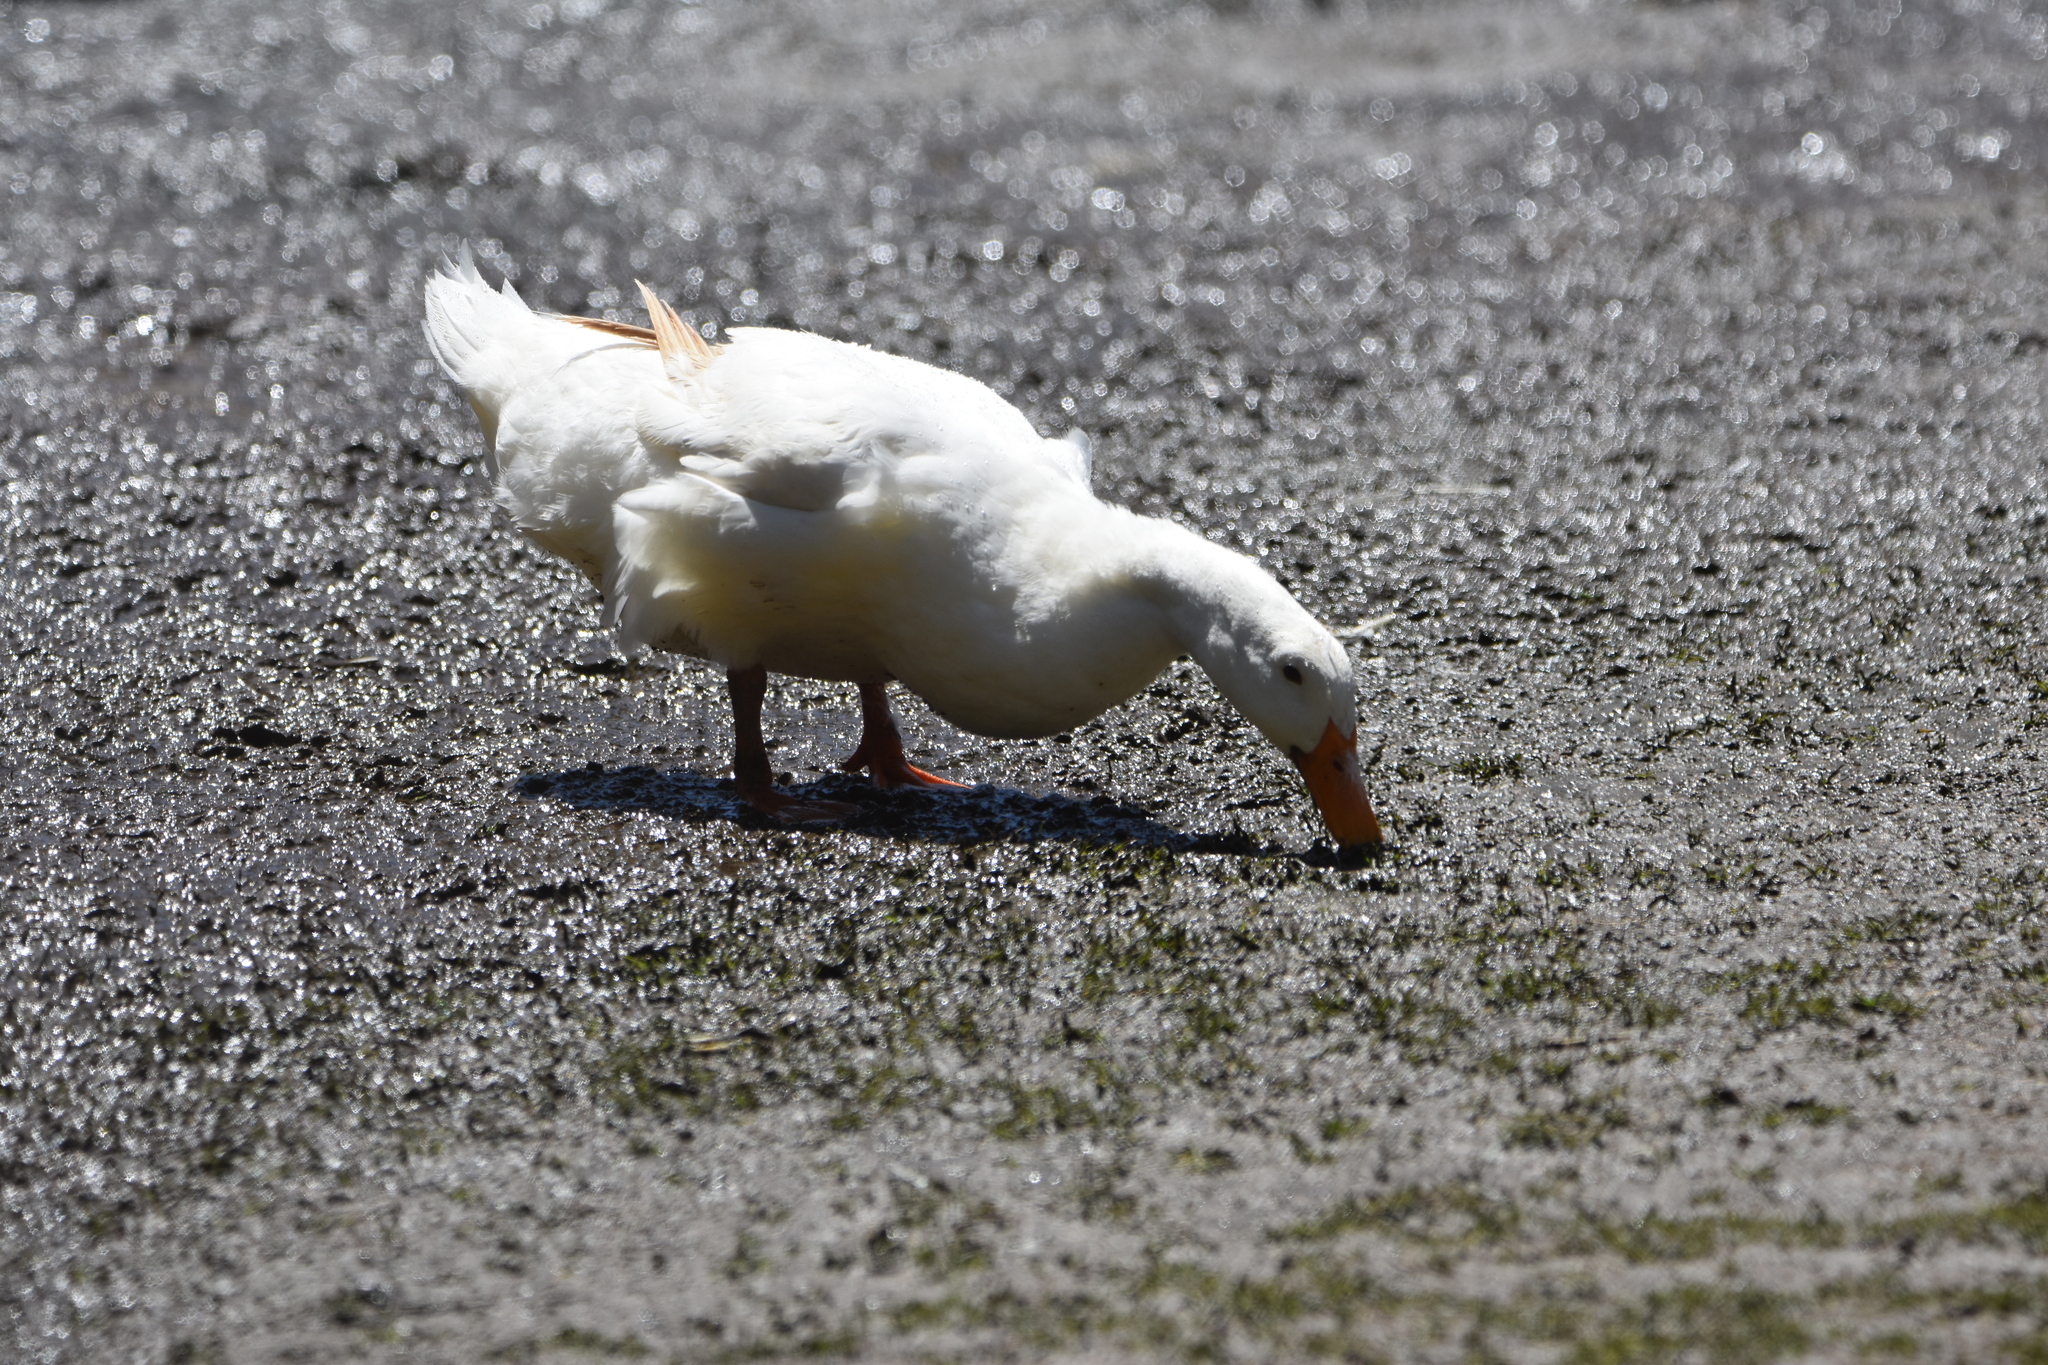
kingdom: Animalia
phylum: Chordata
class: Aves
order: Anseriformes
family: Anatidae
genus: Anas
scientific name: Anas platyrhynchos
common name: Mallard
